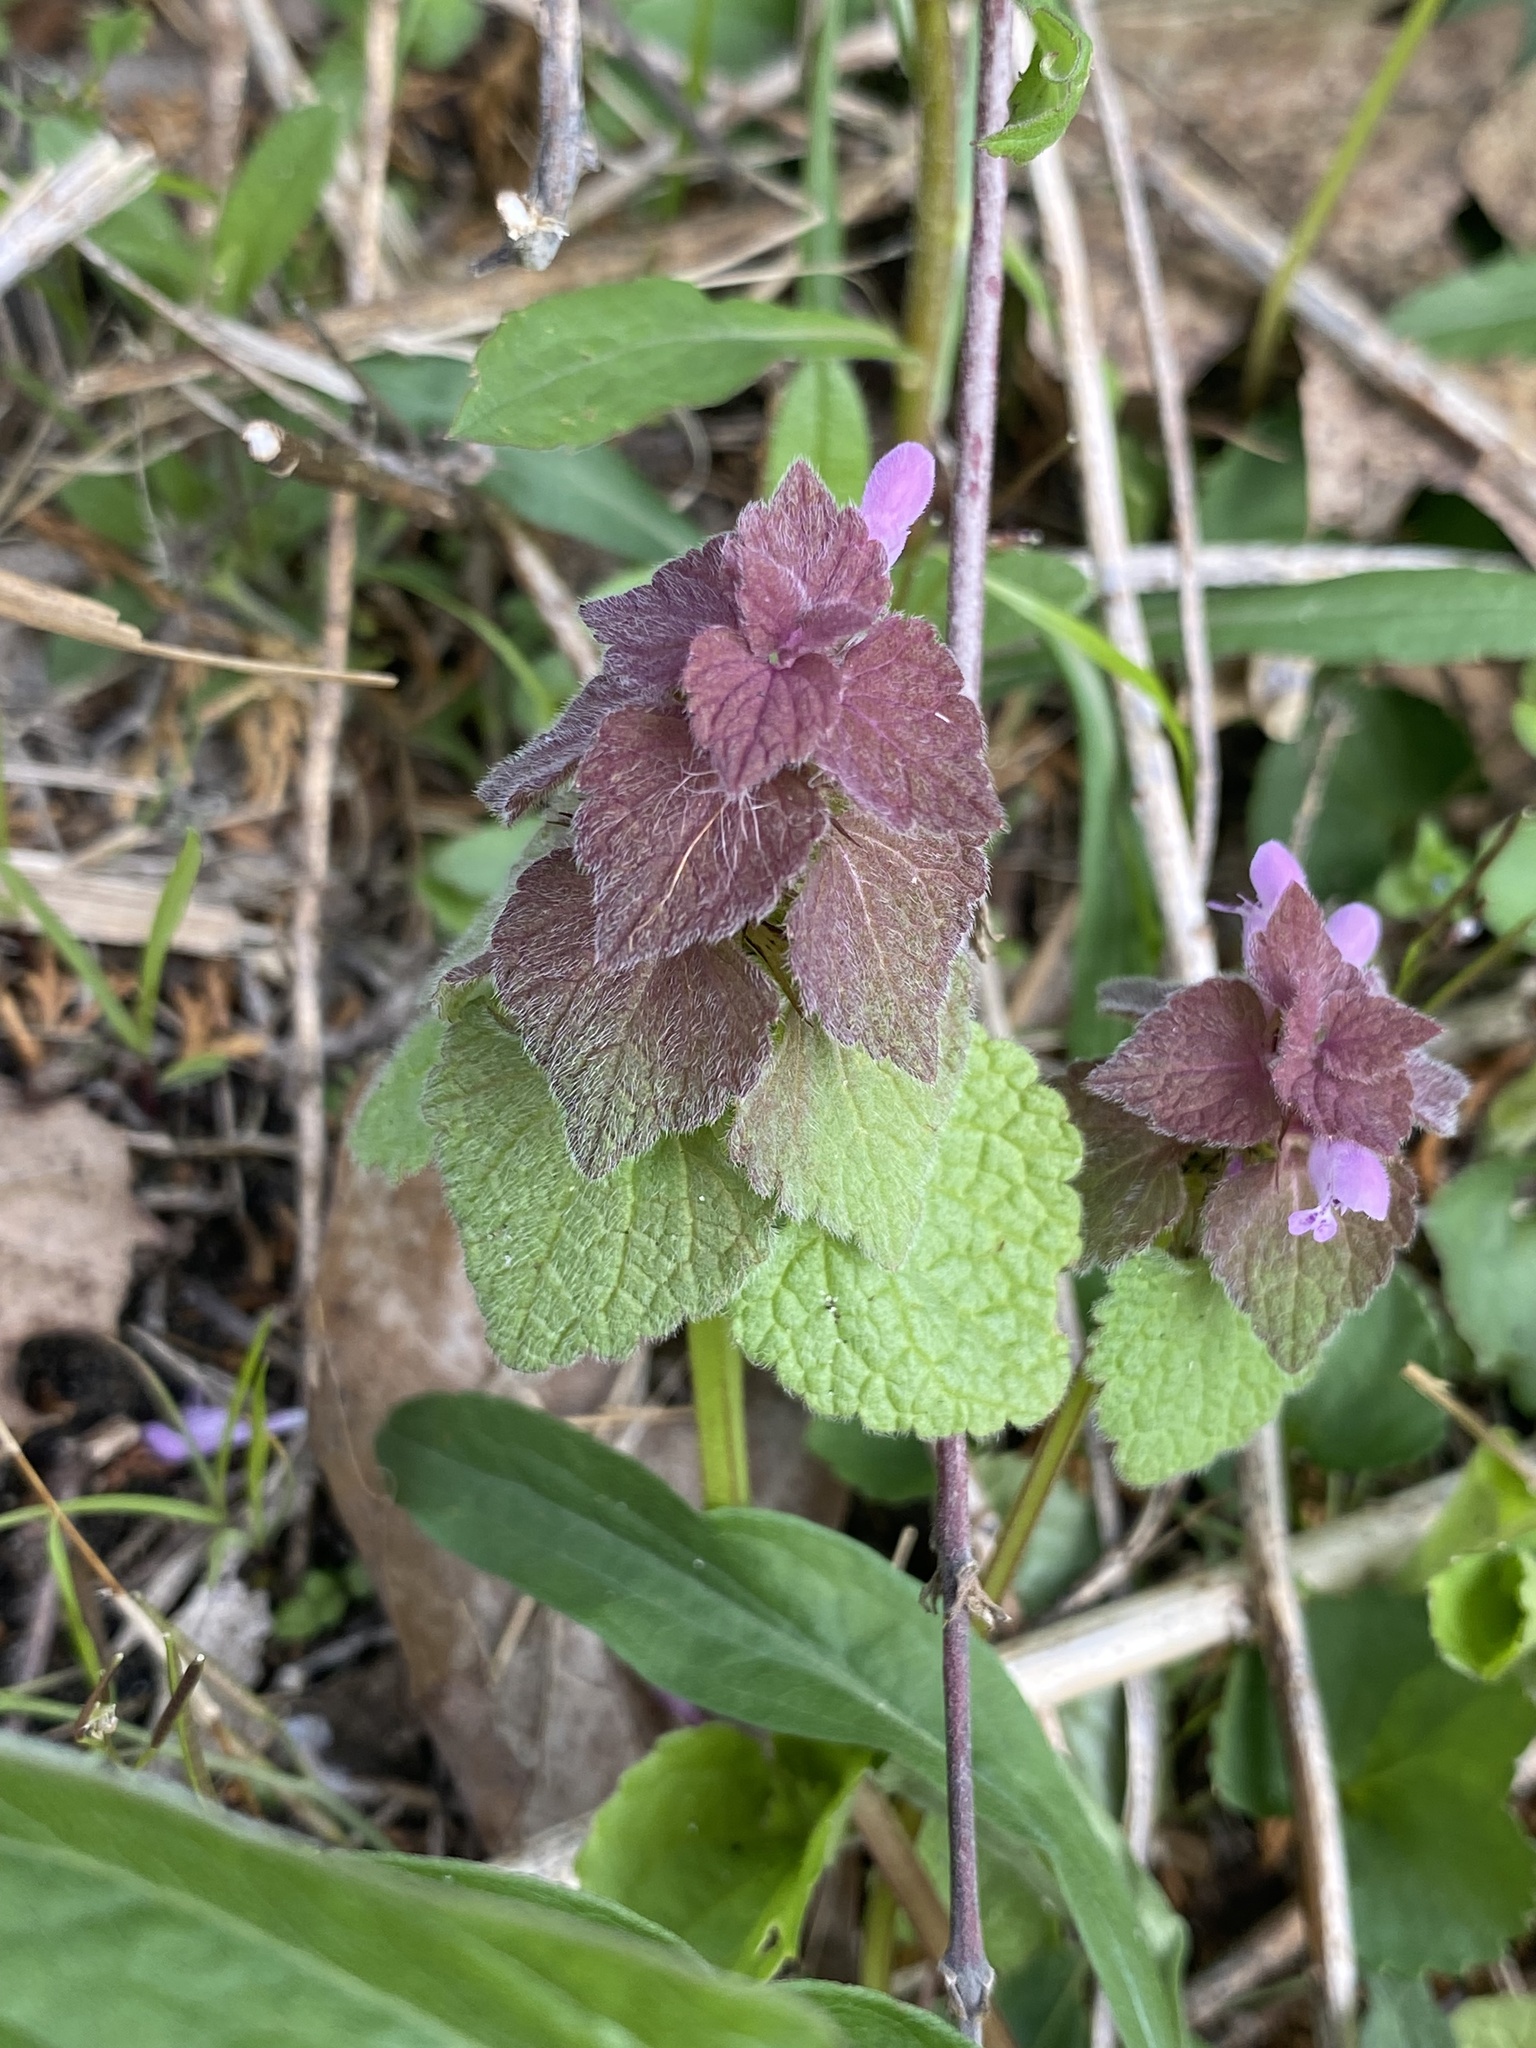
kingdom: Plantae
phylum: Tracheophyta
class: Magnoliopsida
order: Lamiales
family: Lamiaceae
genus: Lamium
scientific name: Lamium purpureum
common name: Red dead-nettle
